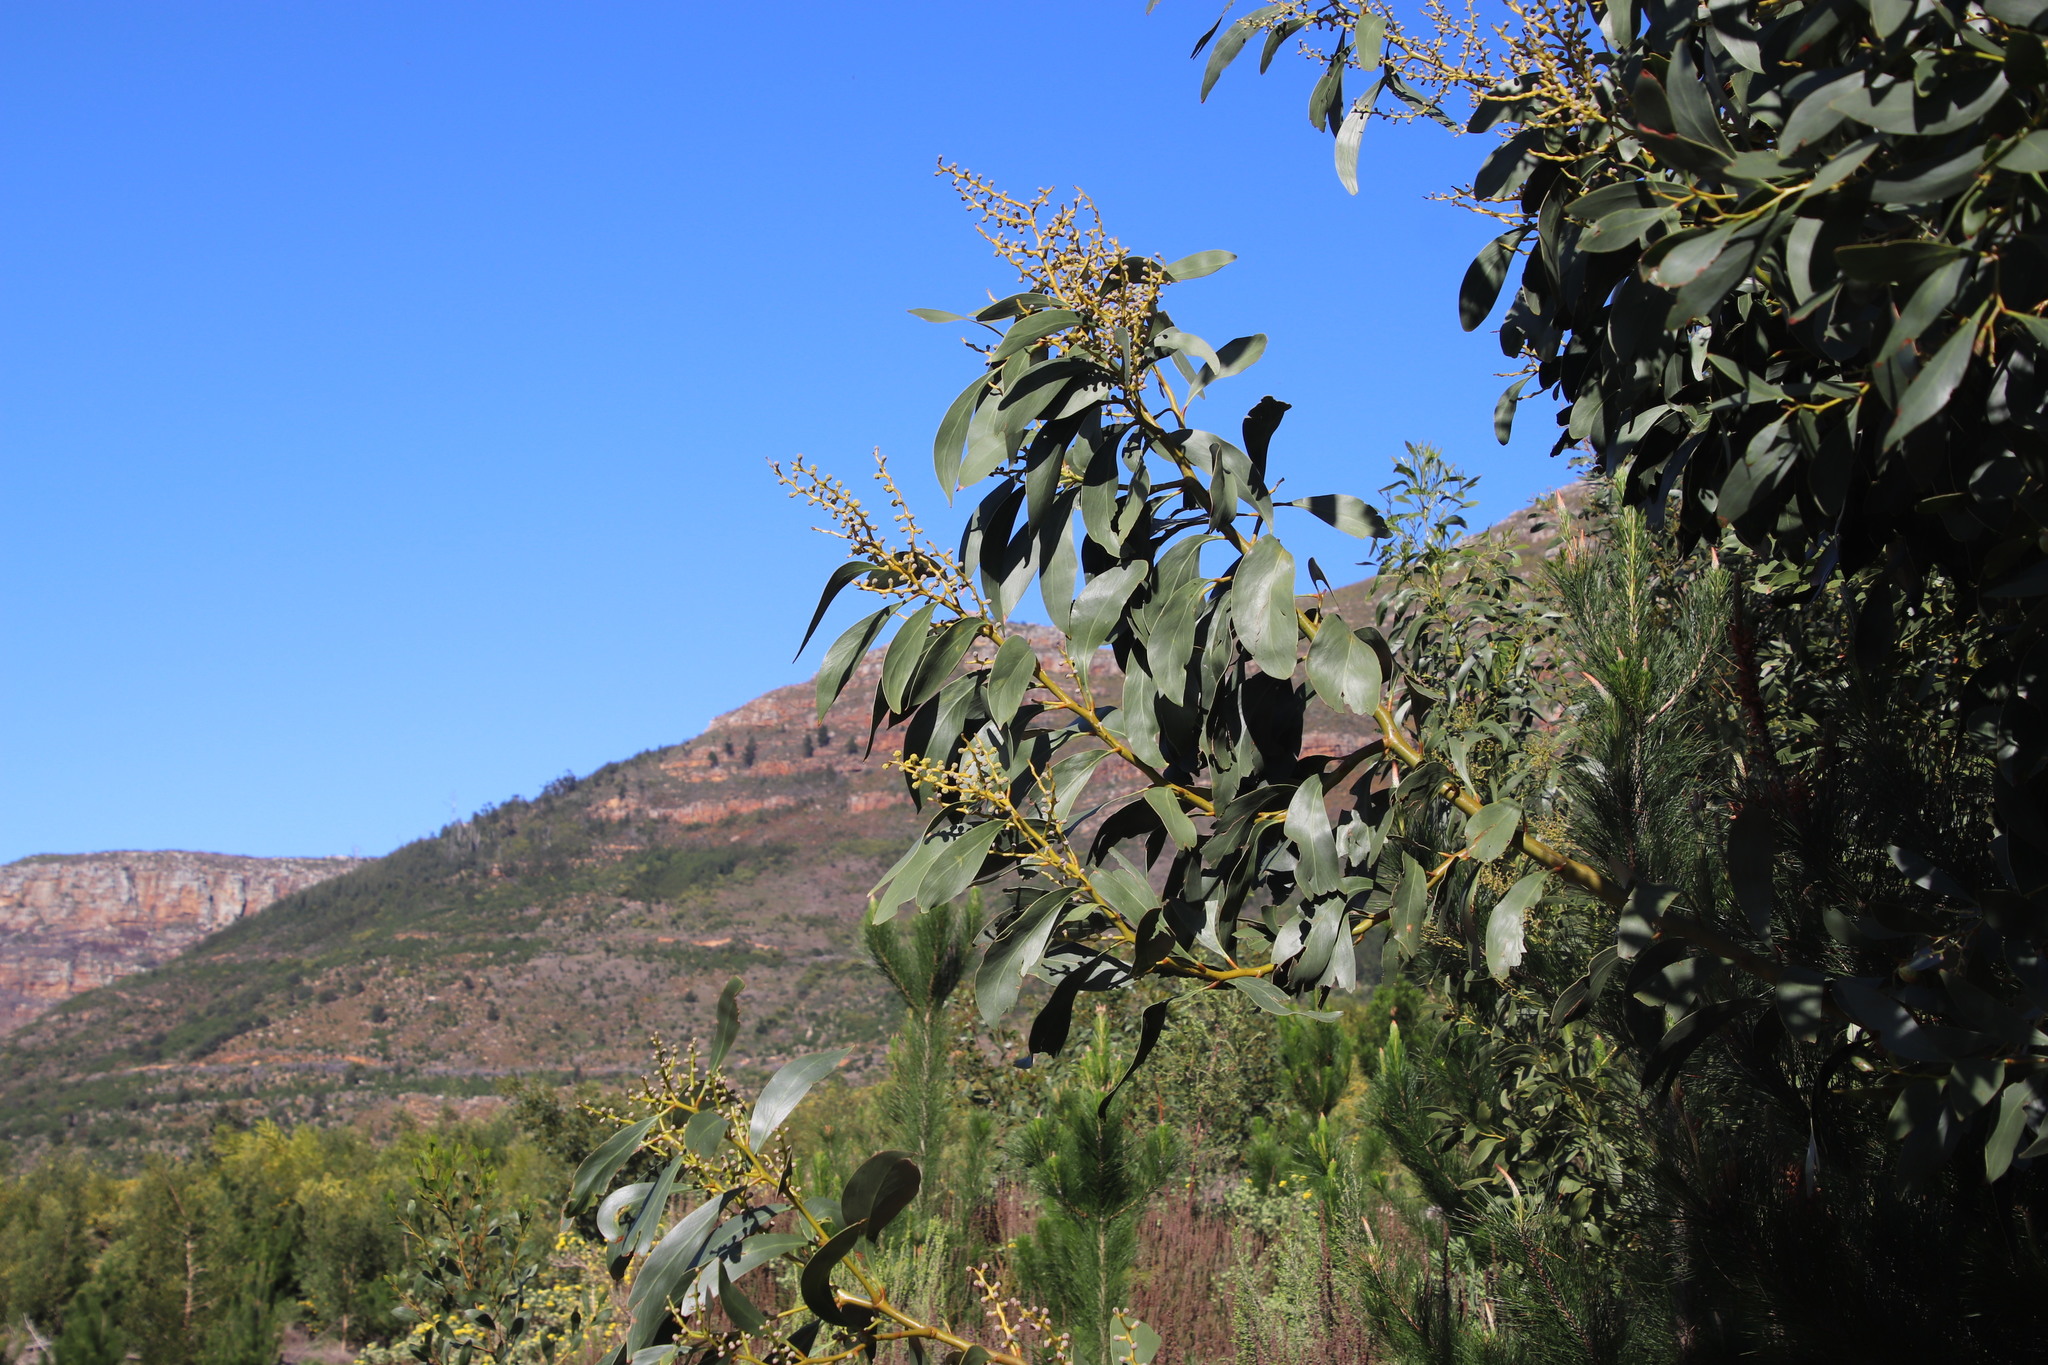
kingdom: Plantae
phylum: Tracheophyta
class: Magnoliopsida
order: Fabales
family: Fabaceae
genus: Acacia
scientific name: Acacia pycnantha
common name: Golden wattle
